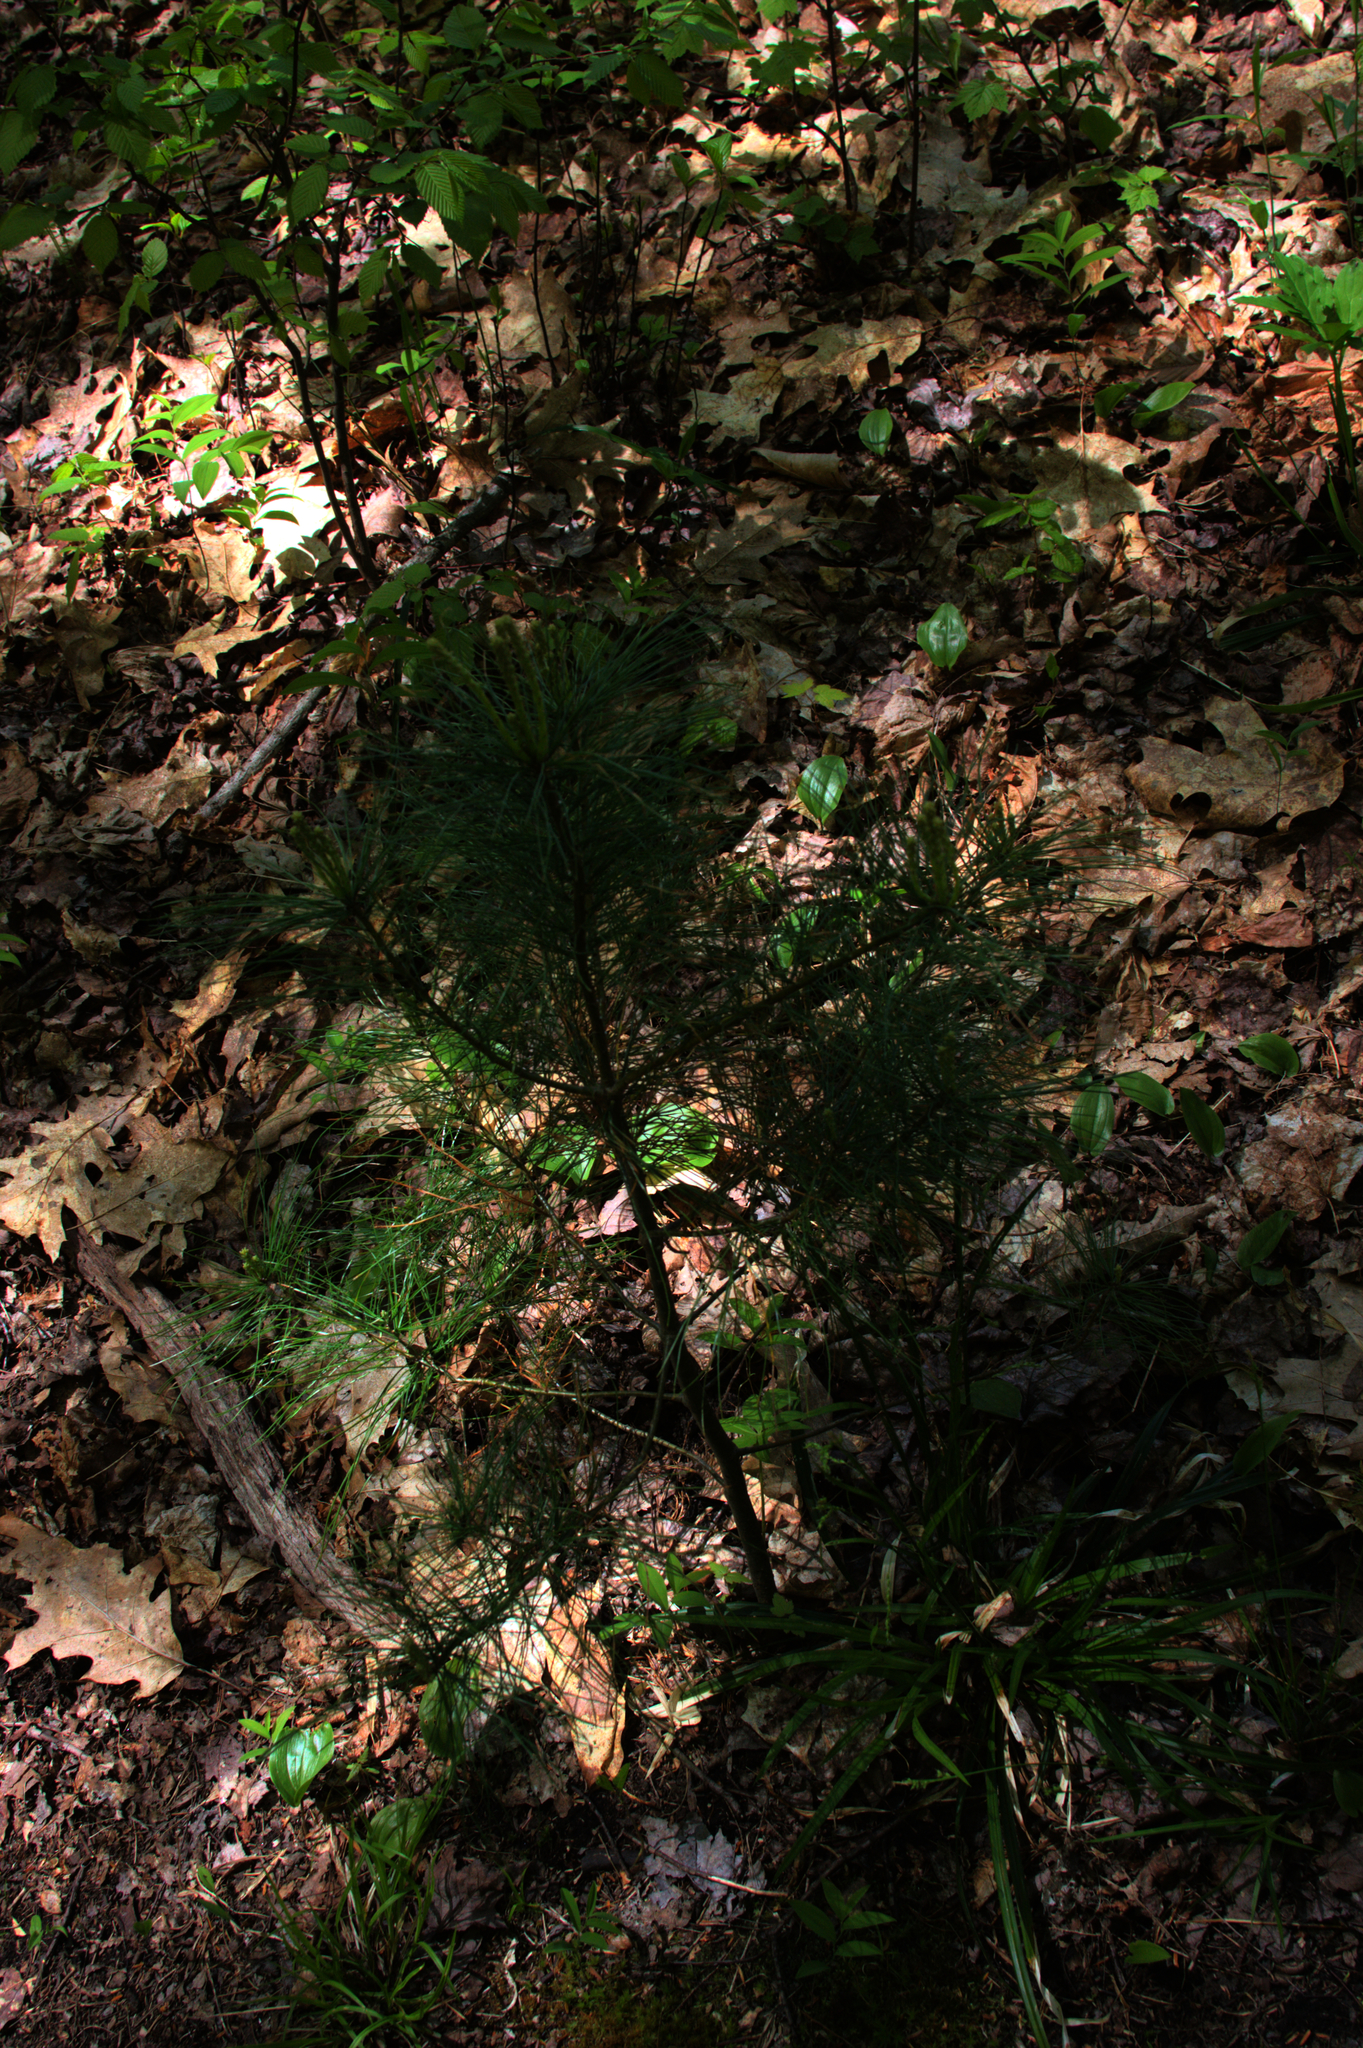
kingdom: Plantae
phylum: Tracheophyta
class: Pinopsida
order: Pinales
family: Pinaceae
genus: Pinus
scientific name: Pinus strobus
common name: Weymouth pine
